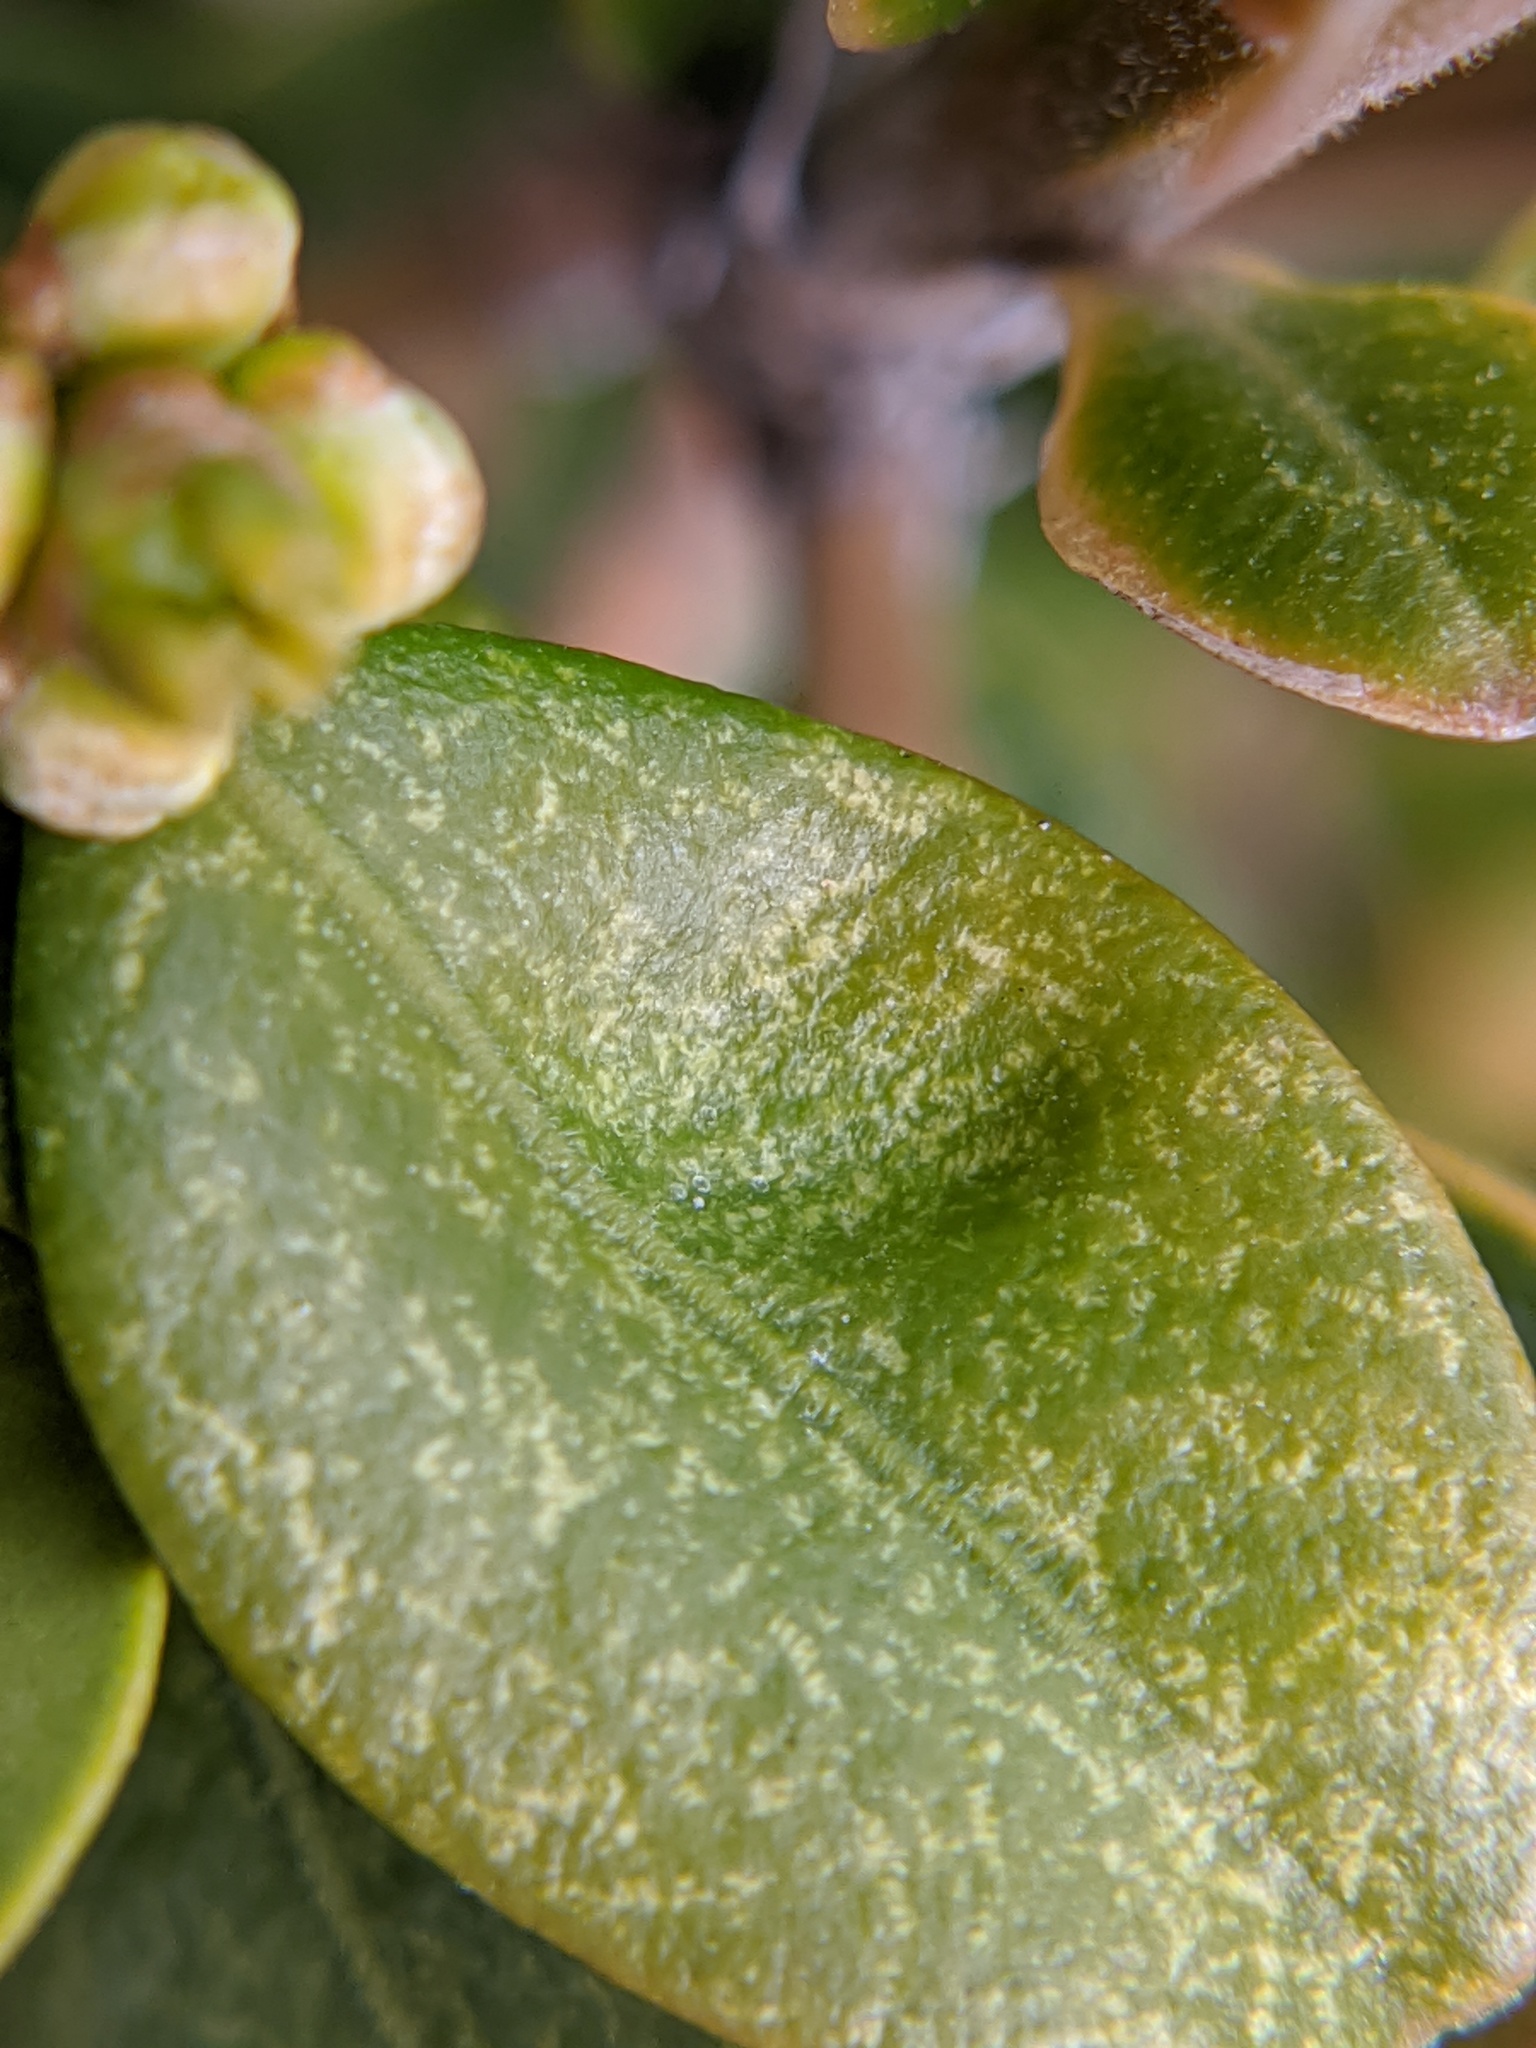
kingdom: Animalia
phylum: Arthropoda
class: Arachnida
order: Trombidiformes
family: Tetranychidae
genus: Eurytetranychus
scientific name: Eurytetranychus buxi
